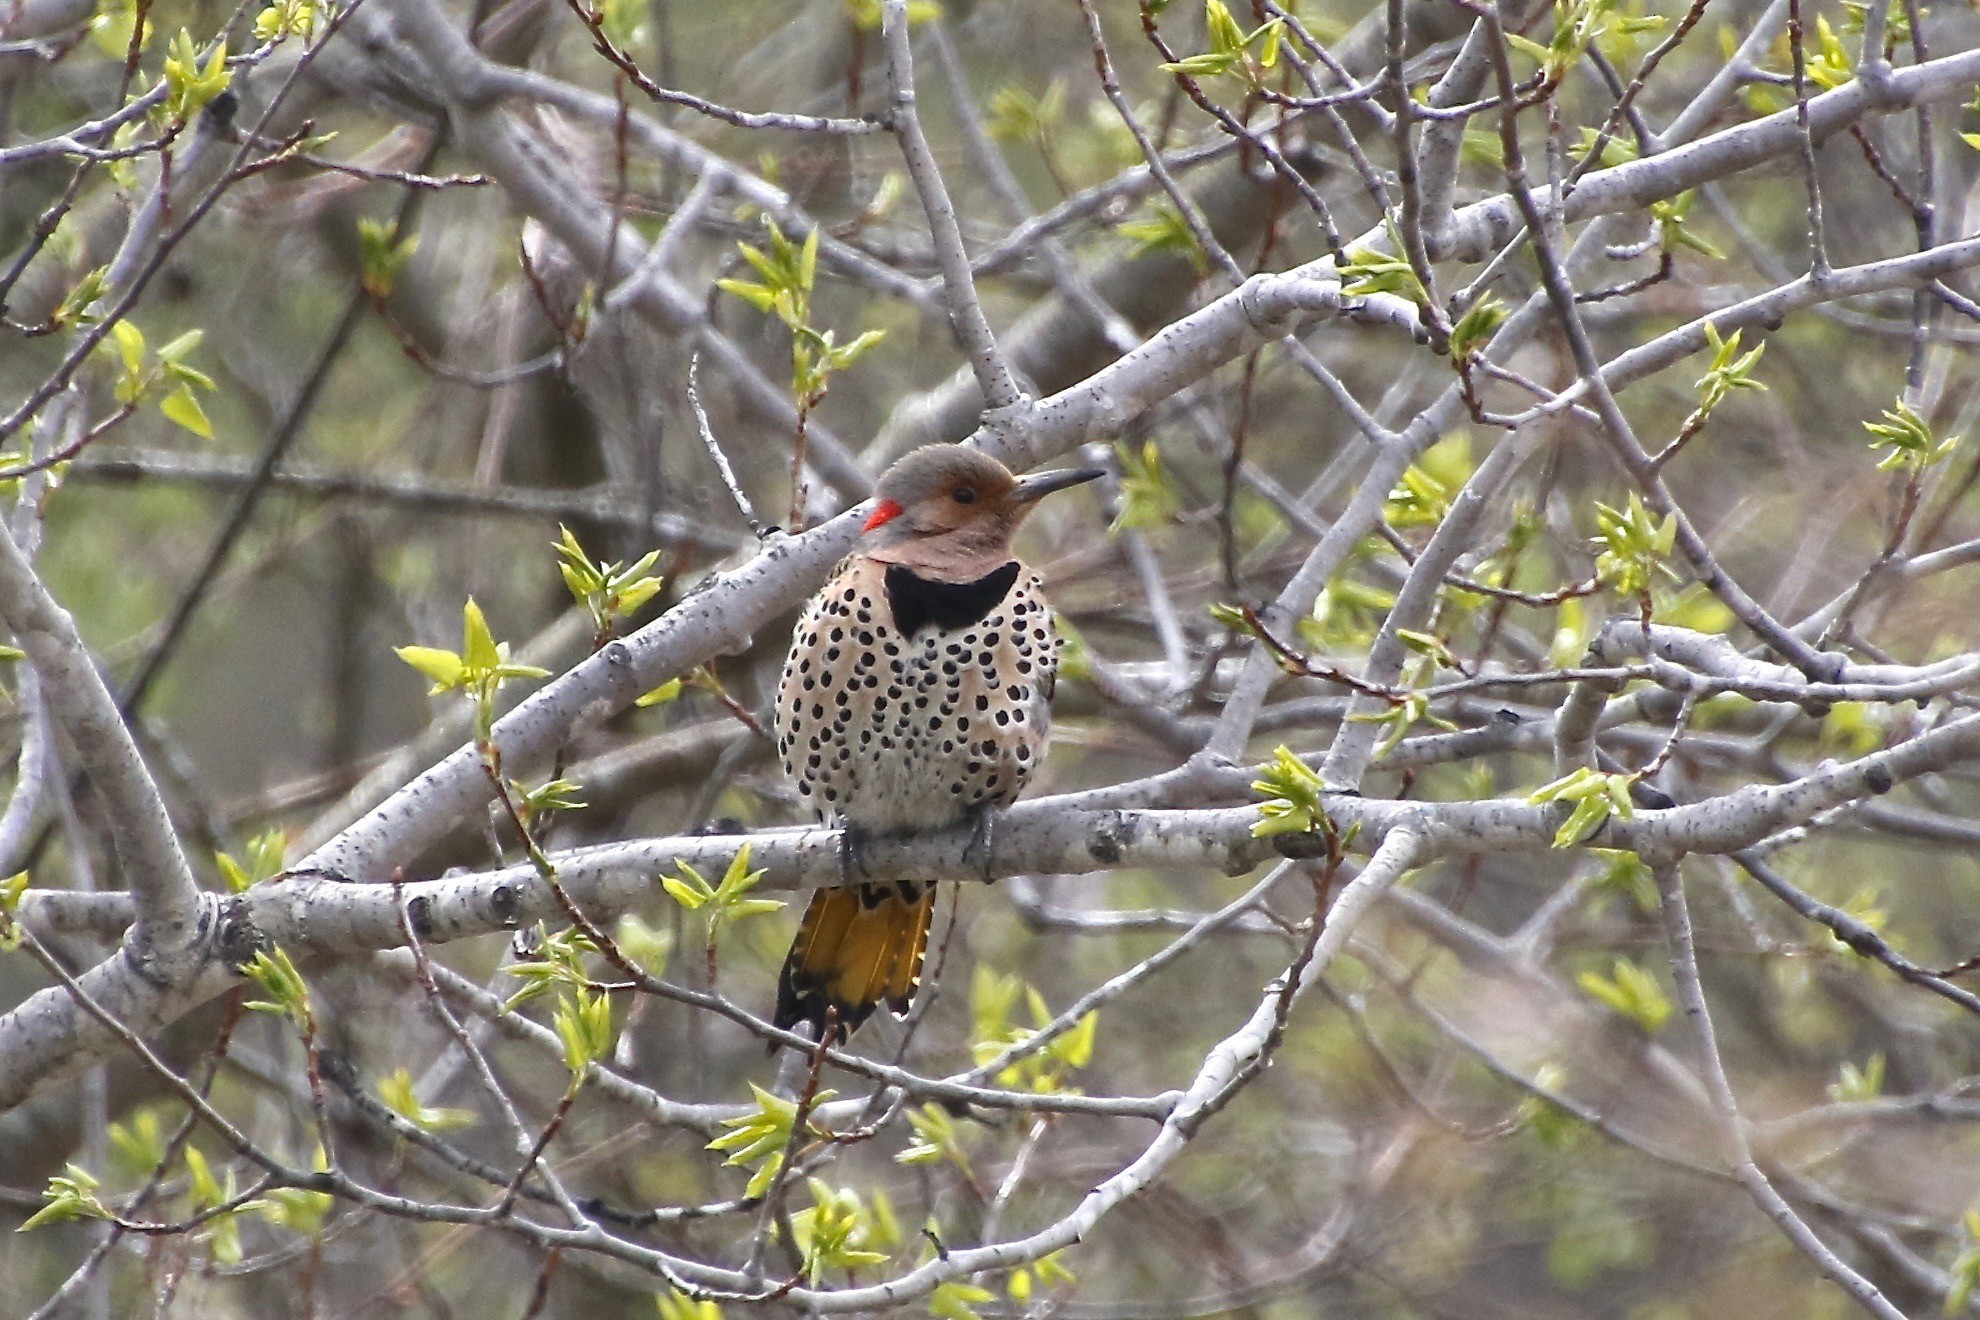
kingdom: Animalia
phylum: Chordata
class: Aves
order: Piciformes
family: Picidae
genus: Colaptes
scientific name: Colaptes auratus
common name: Northern flicker
